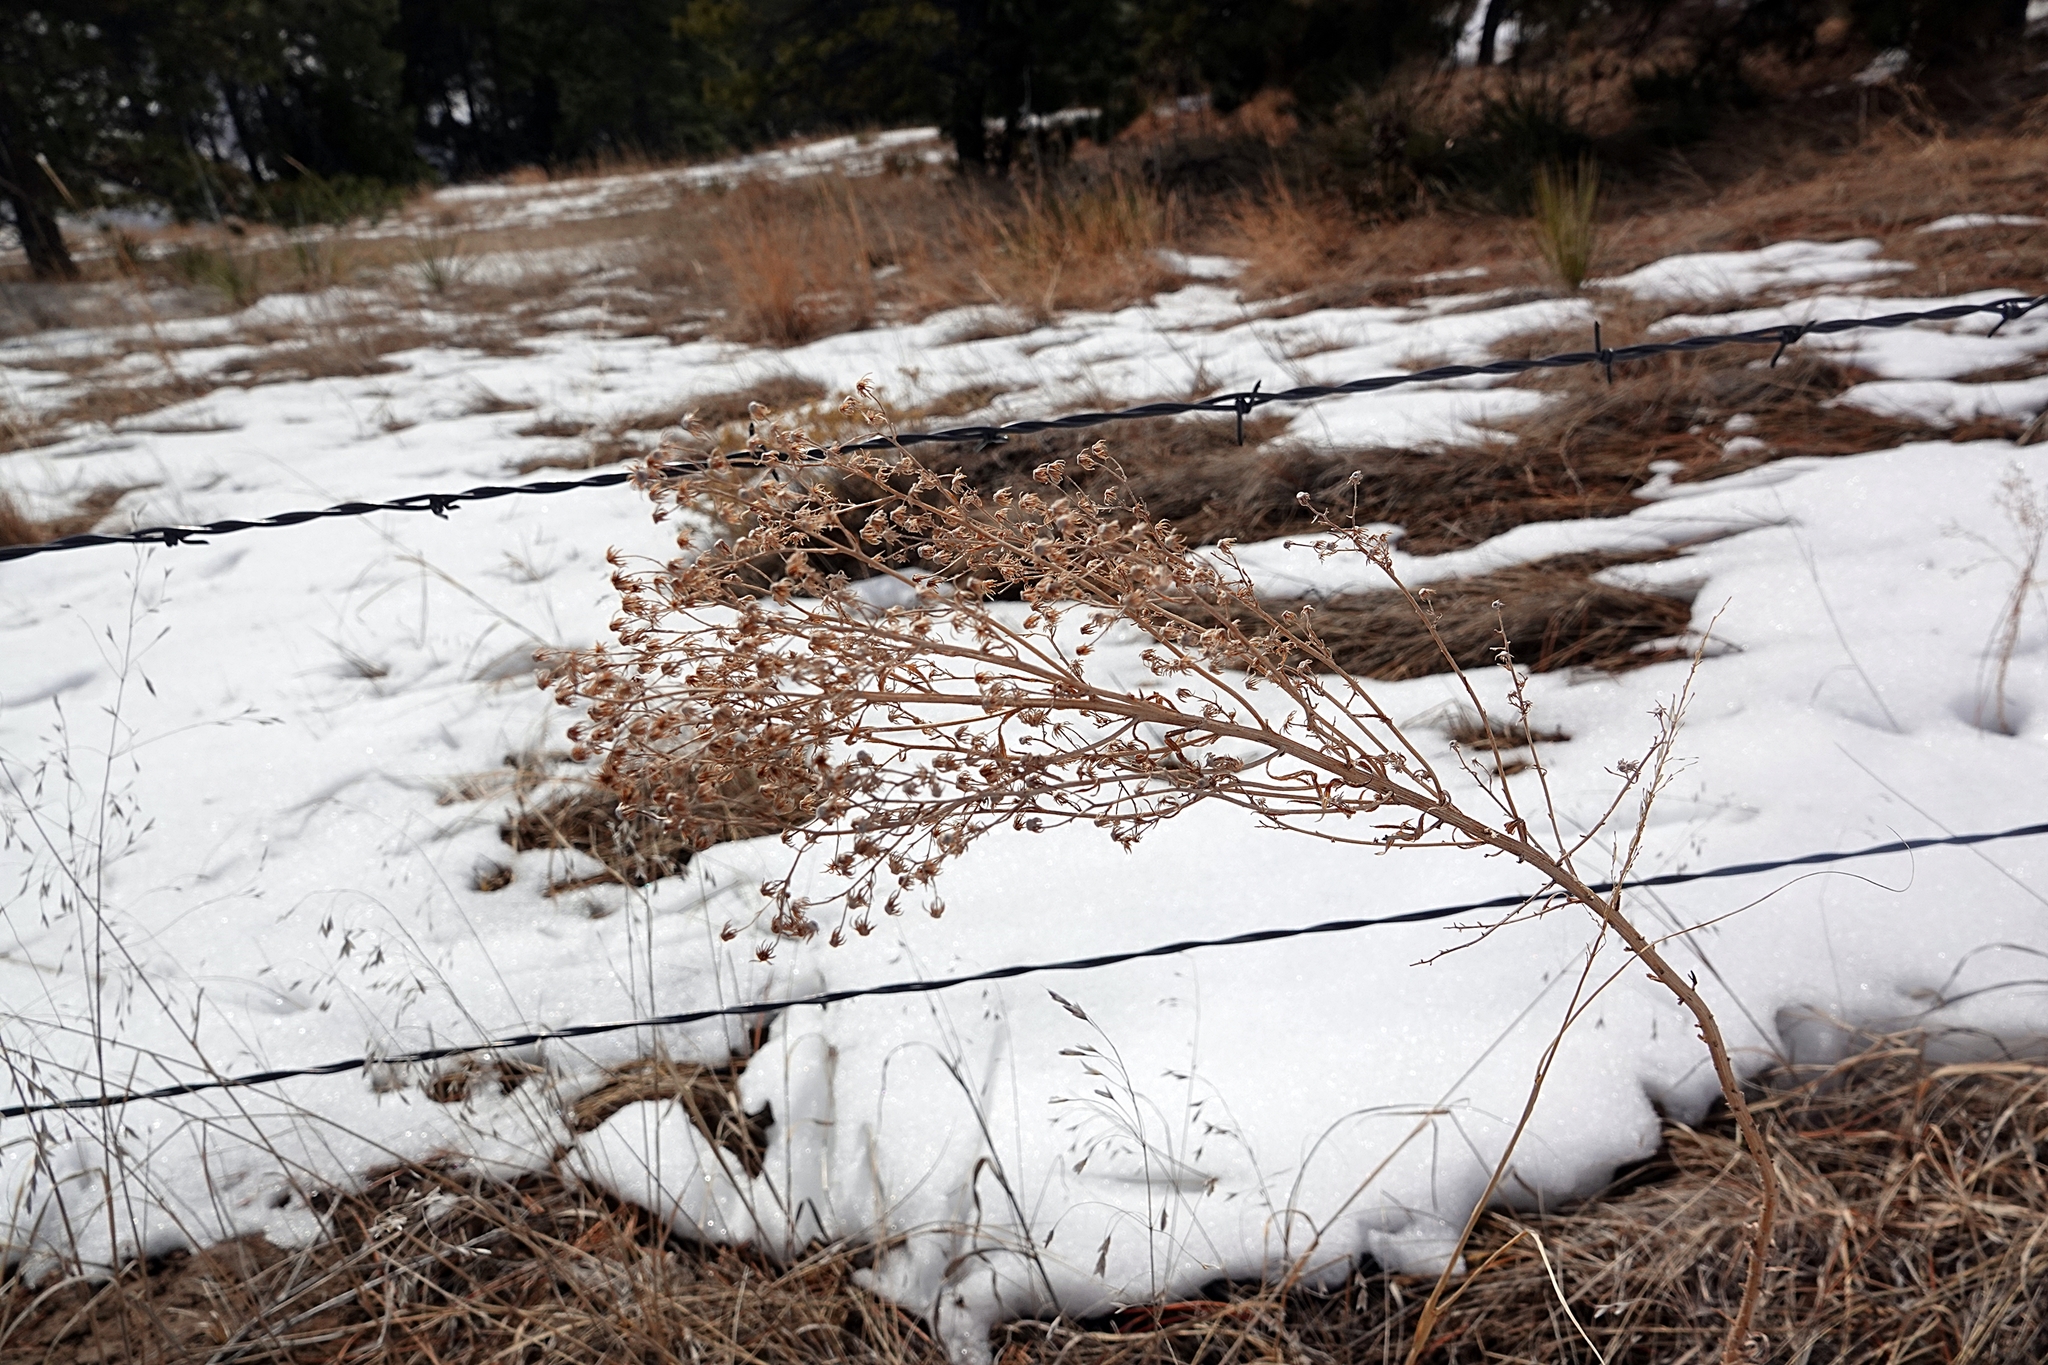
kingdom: Plantae
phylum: Tracheophyta
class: Magnoliopsida
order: Asterales
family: Asteraceae
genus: Erigeron
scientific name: Erigeron canadensis
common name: Canadian fleabane
